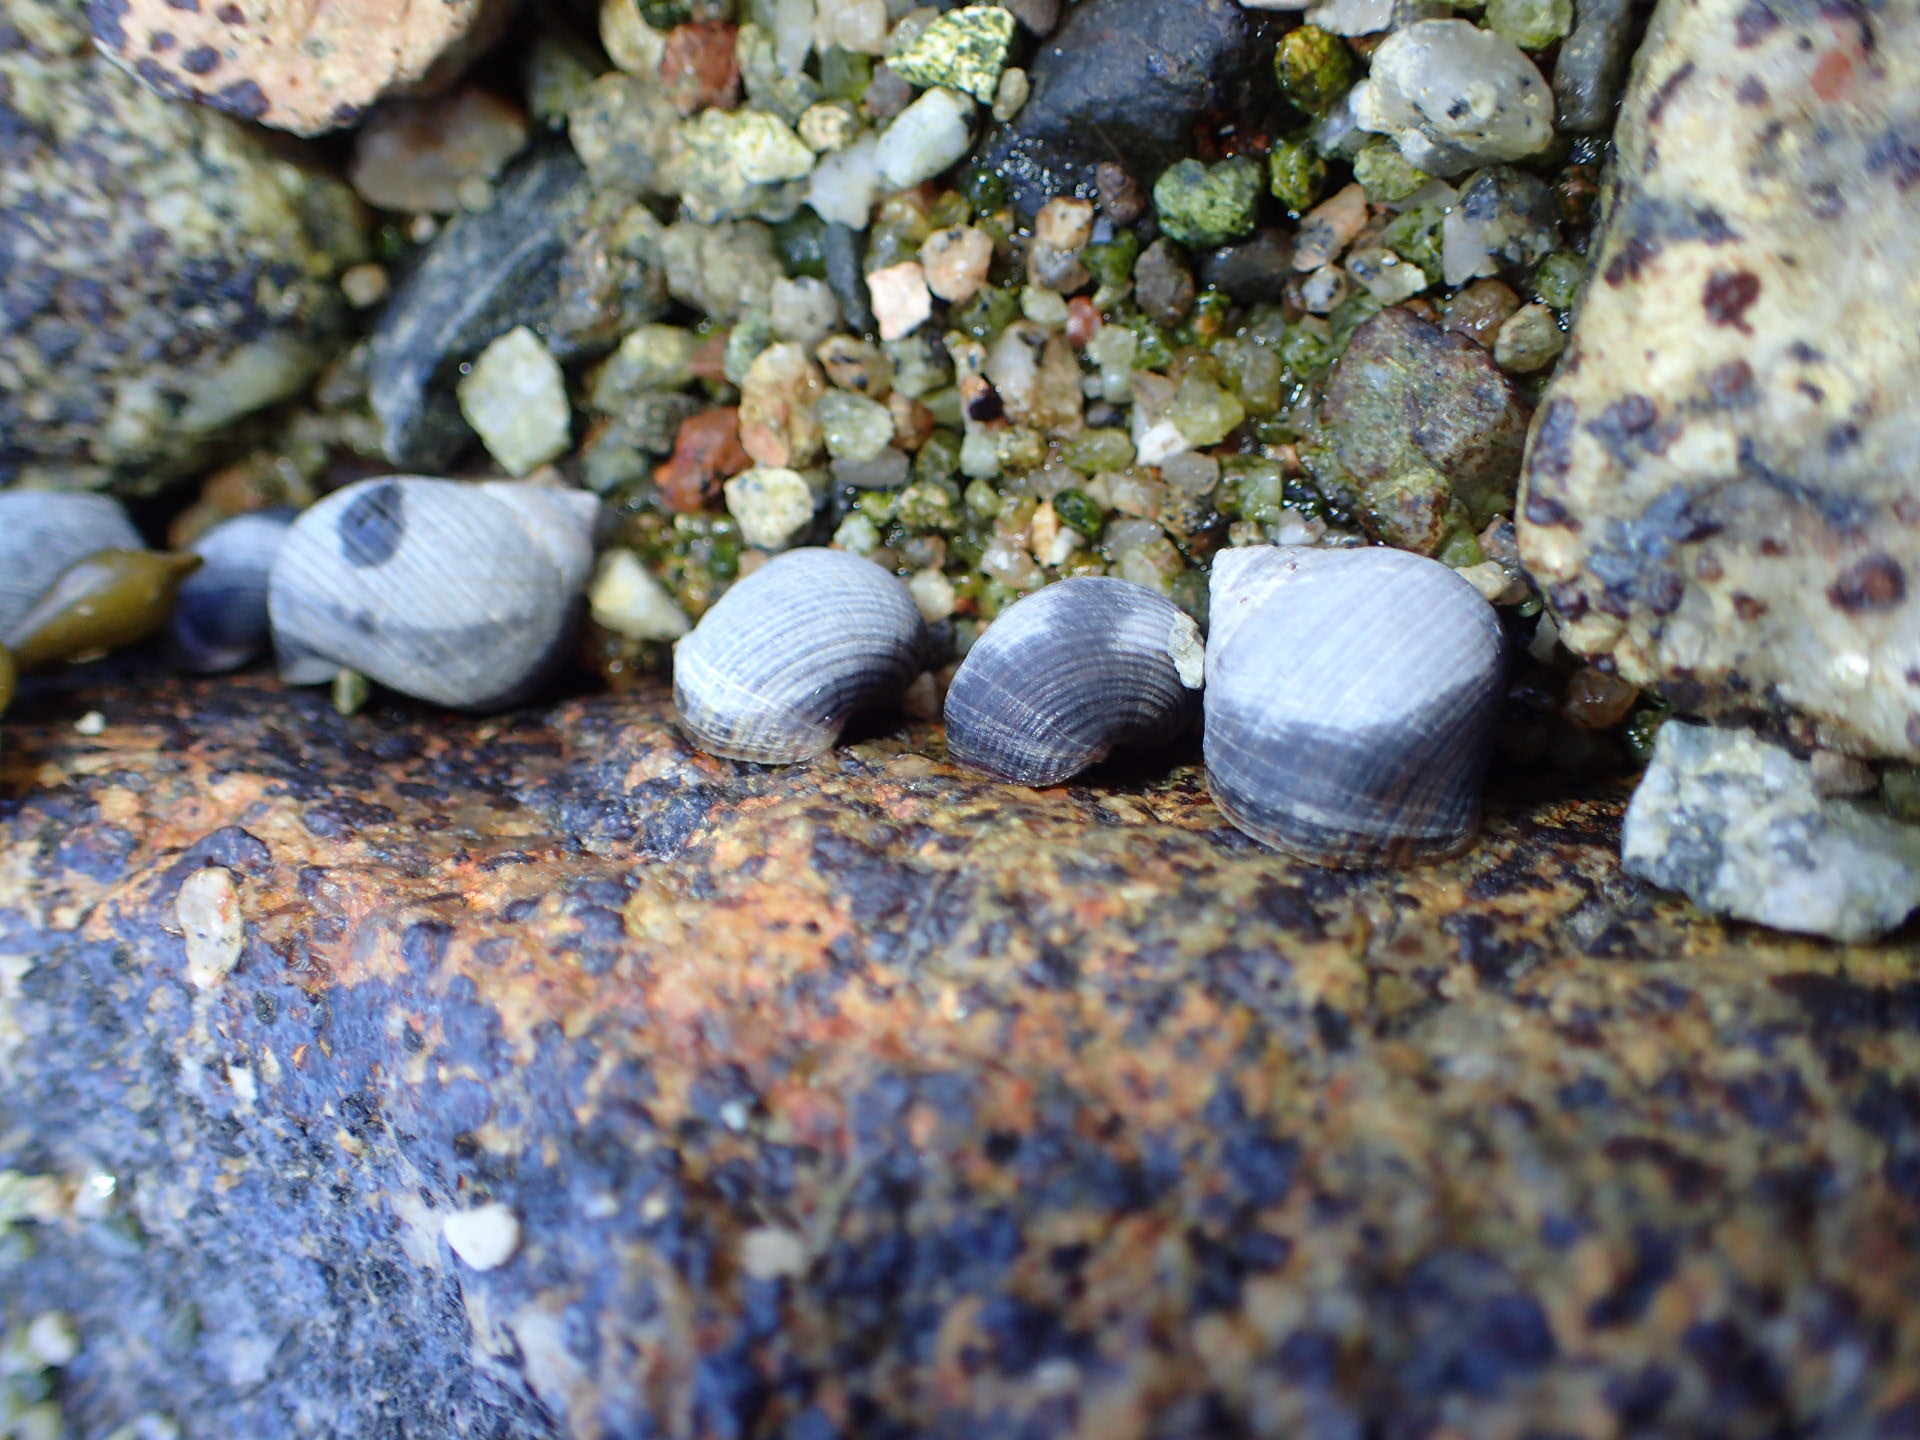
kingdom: Animalia
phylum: Mollusca
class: Gastropoda
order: Littorinimorpha
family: Littorinidae
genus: Littorina
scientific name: Littorina littorea
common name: Common periwinkle
